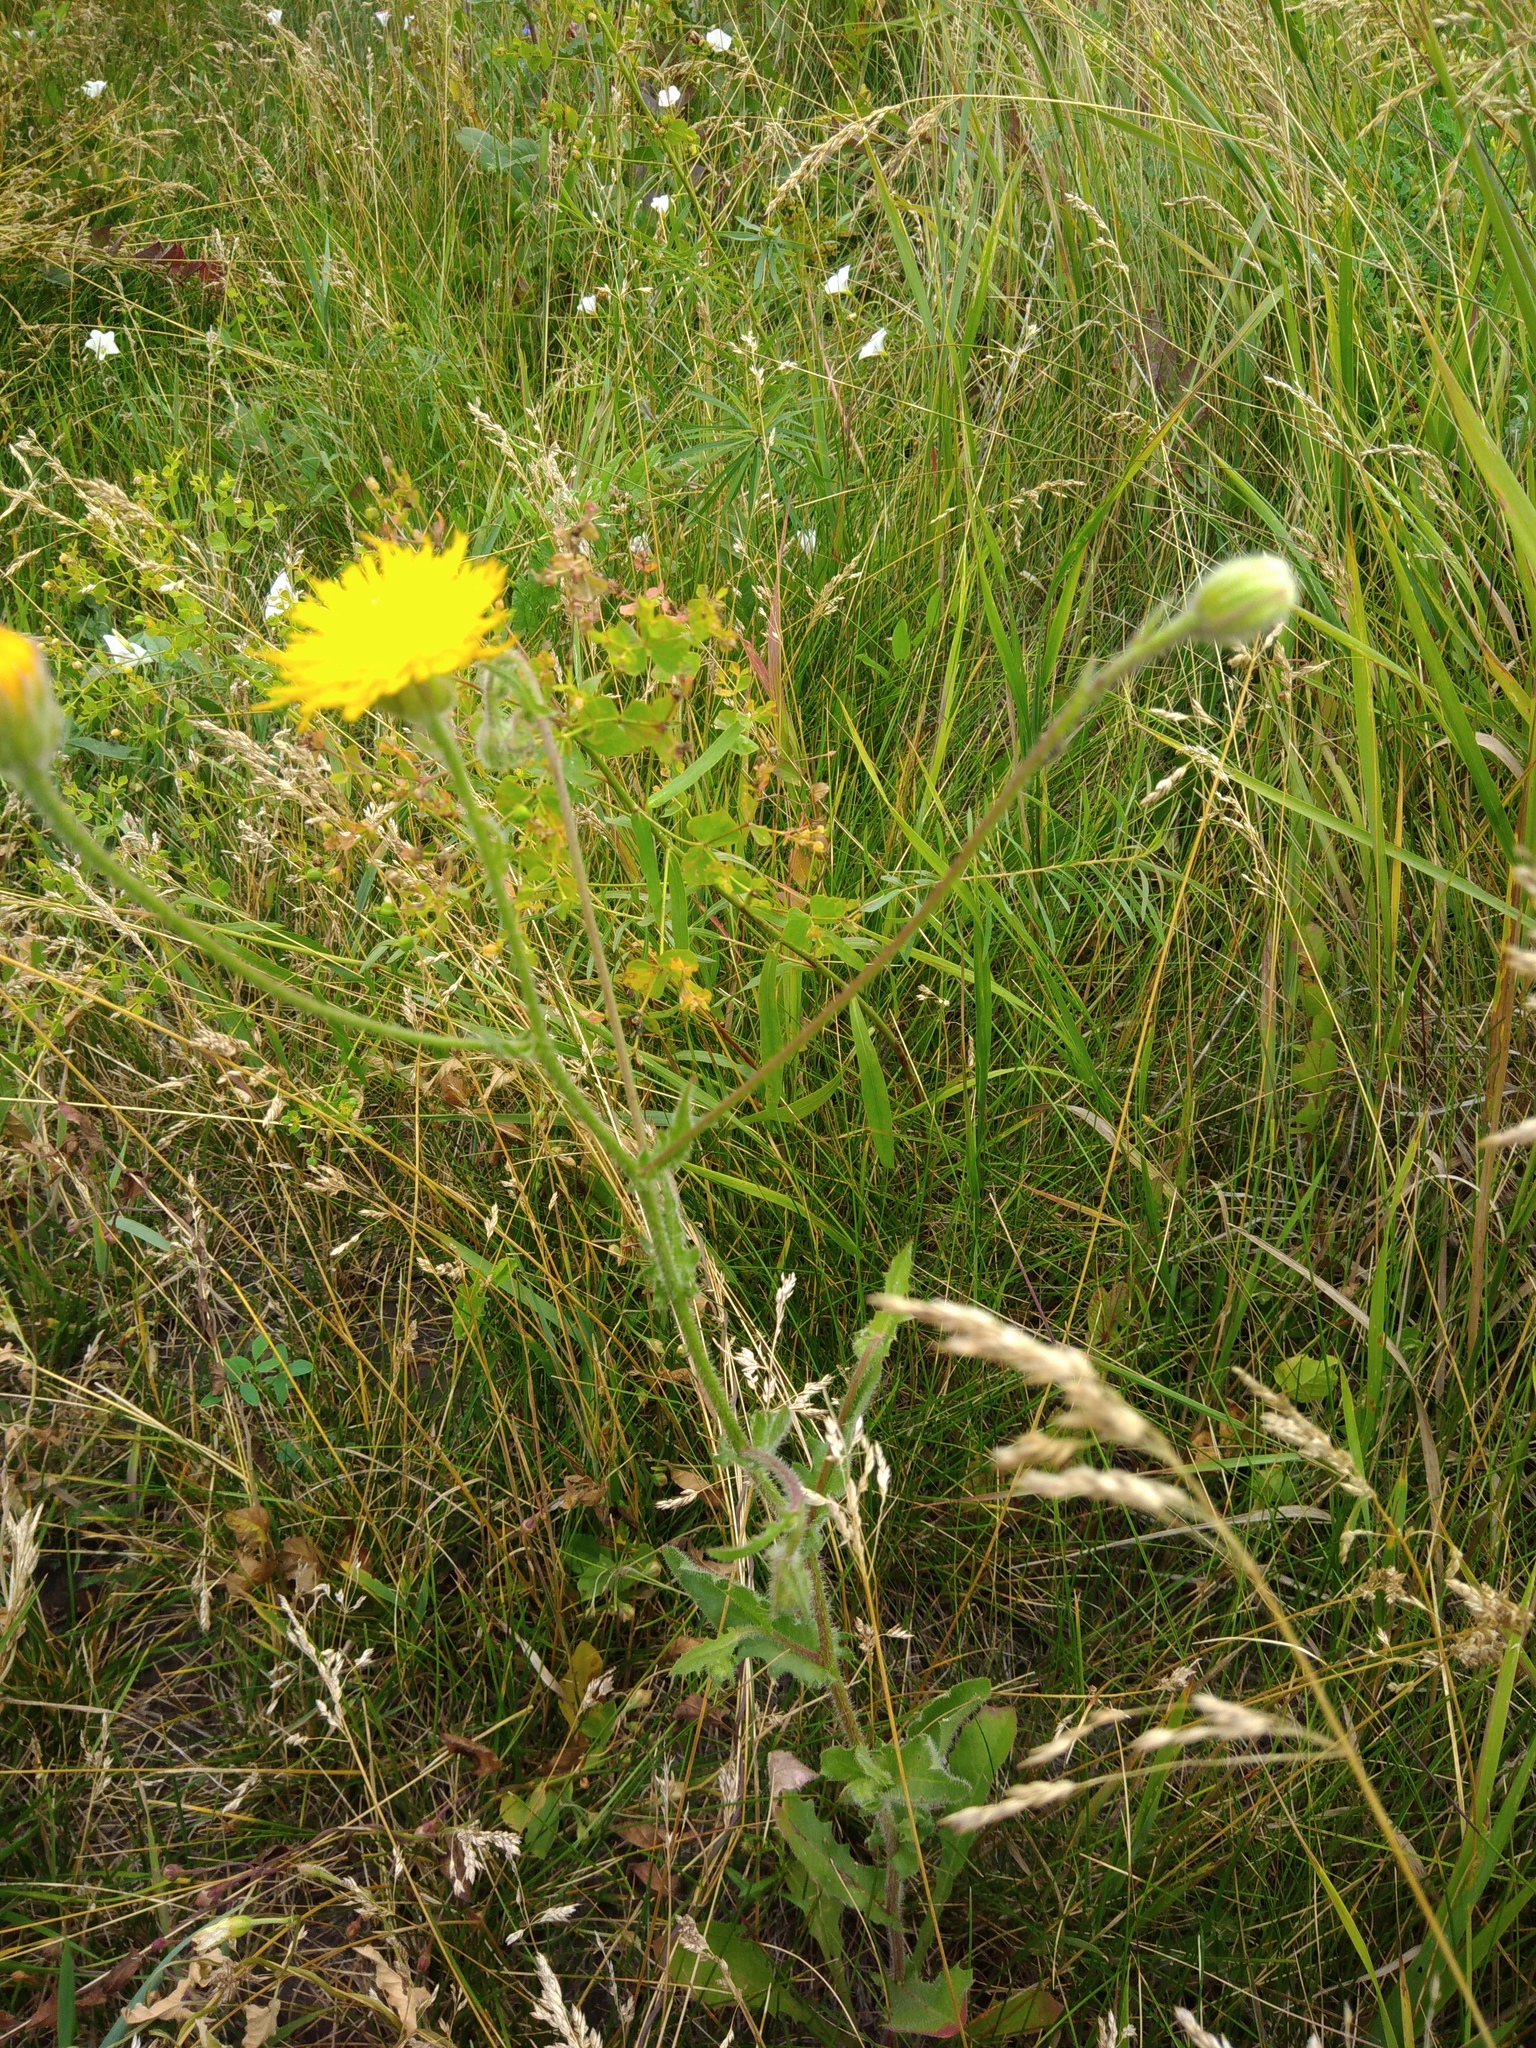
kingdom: Plantae
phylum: Tracheophyta
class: Magnoliopsida
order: Asterales
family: Asteraceae
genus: Crepis
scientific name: Crepis foetida
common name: Stinking hawk's-beard
